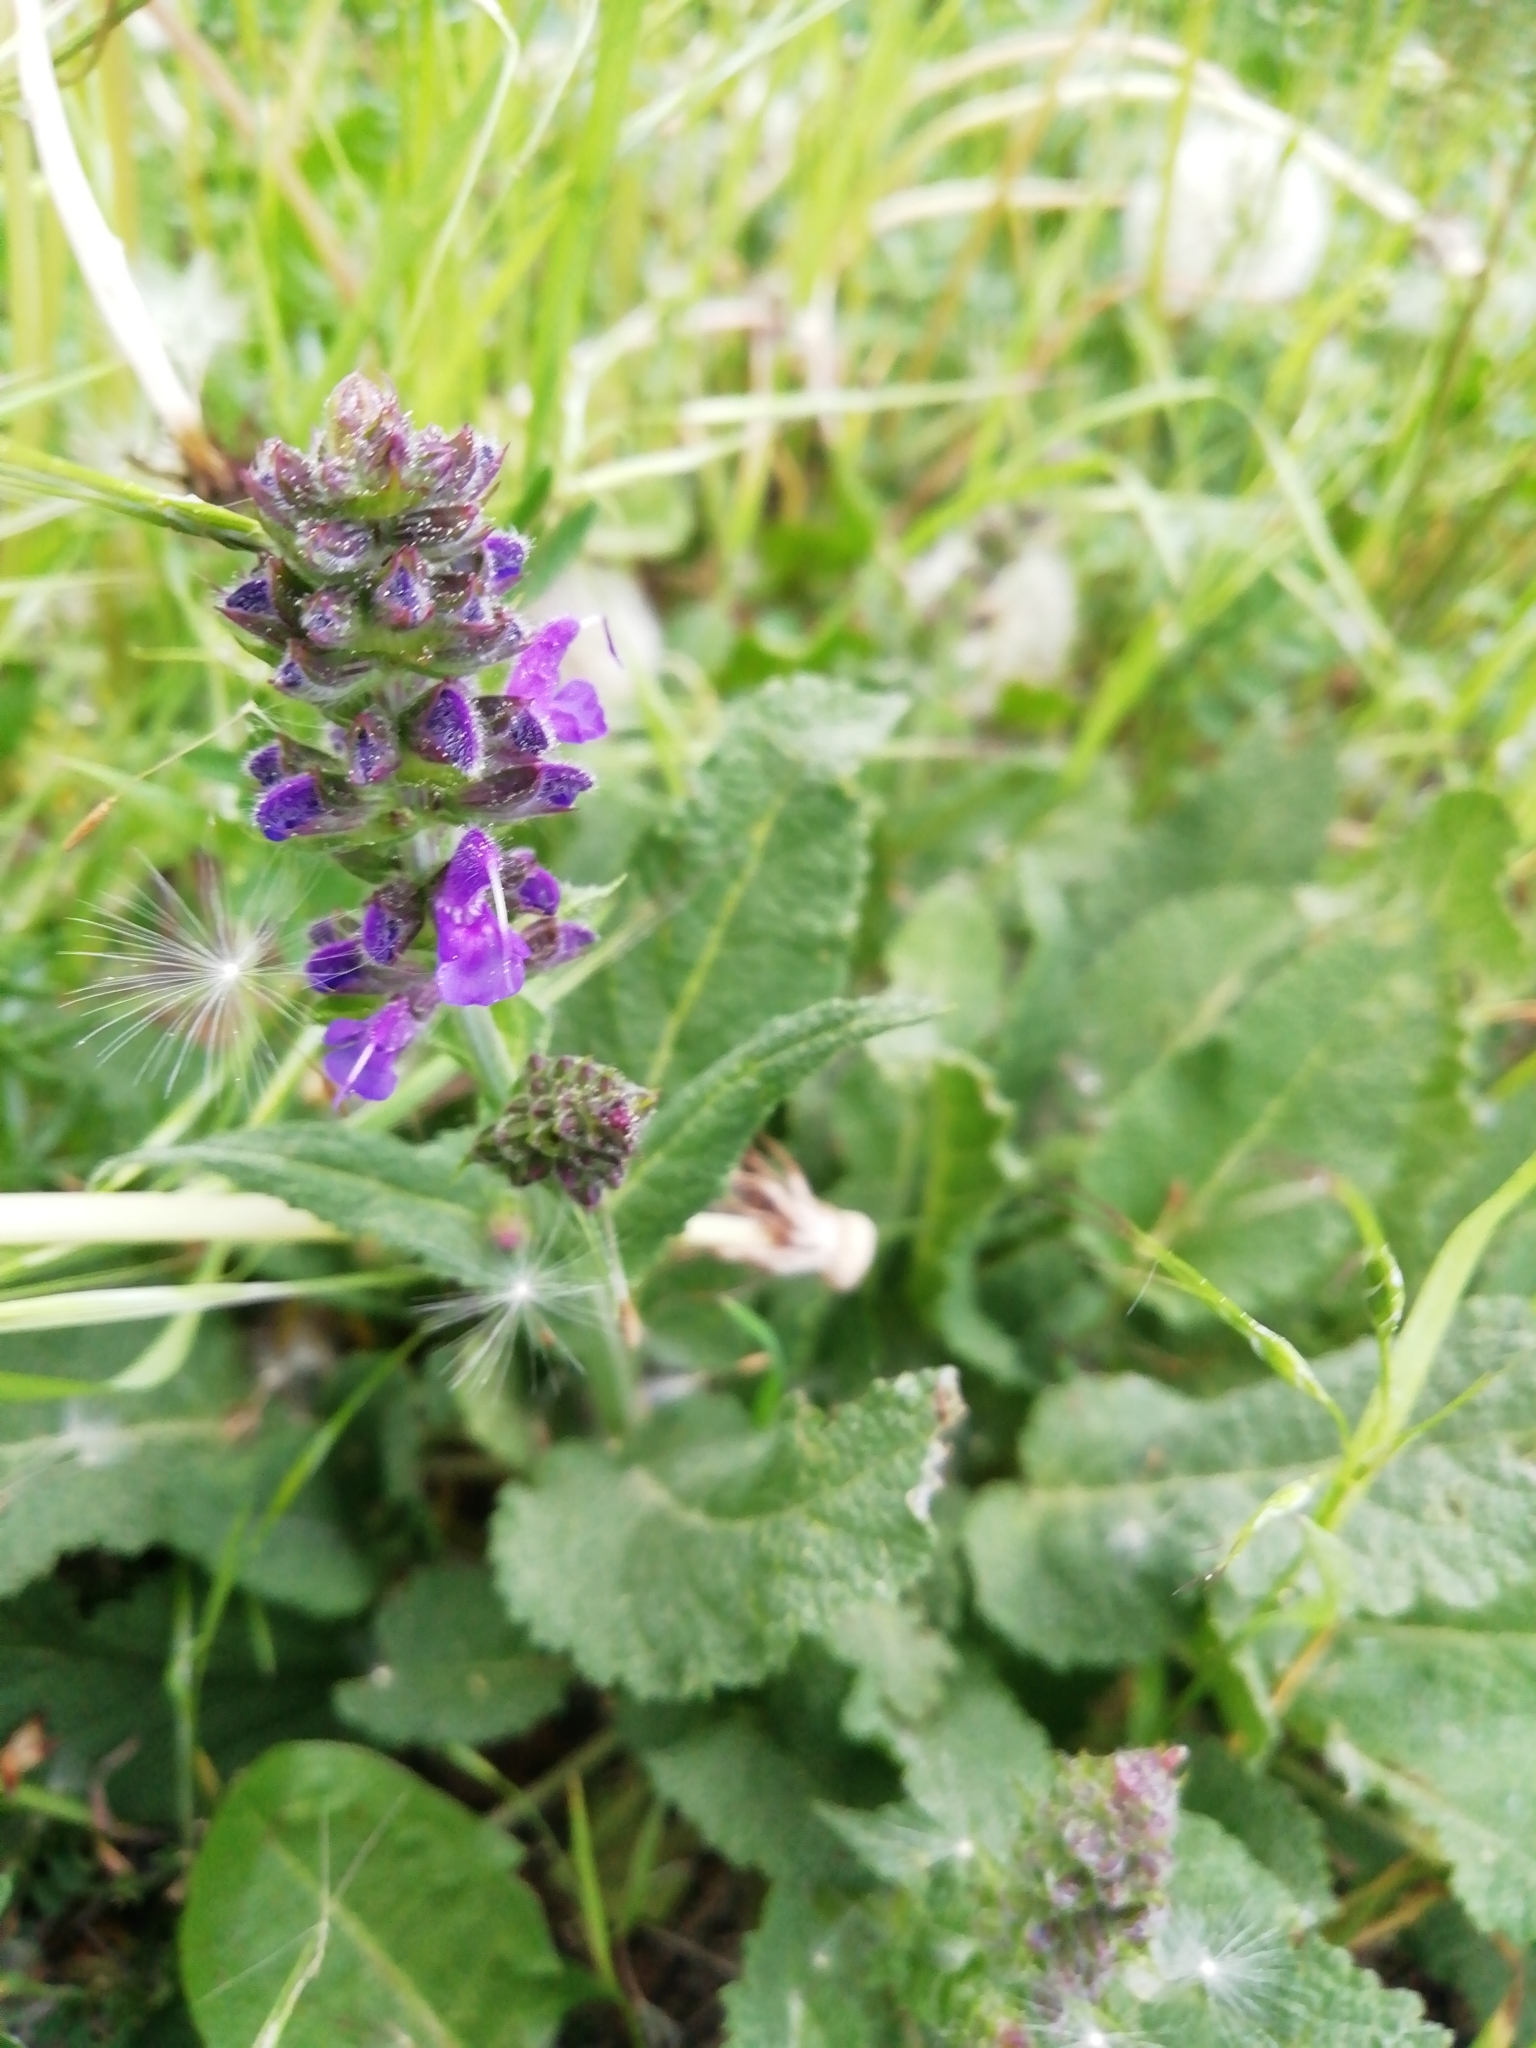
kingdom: Plantae
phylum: Tracheophyta
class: Magnoliopsida
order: Lamiales
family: Lamiaceae
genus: Salvia
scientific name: Salvia pratensis
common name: Meadow sage
